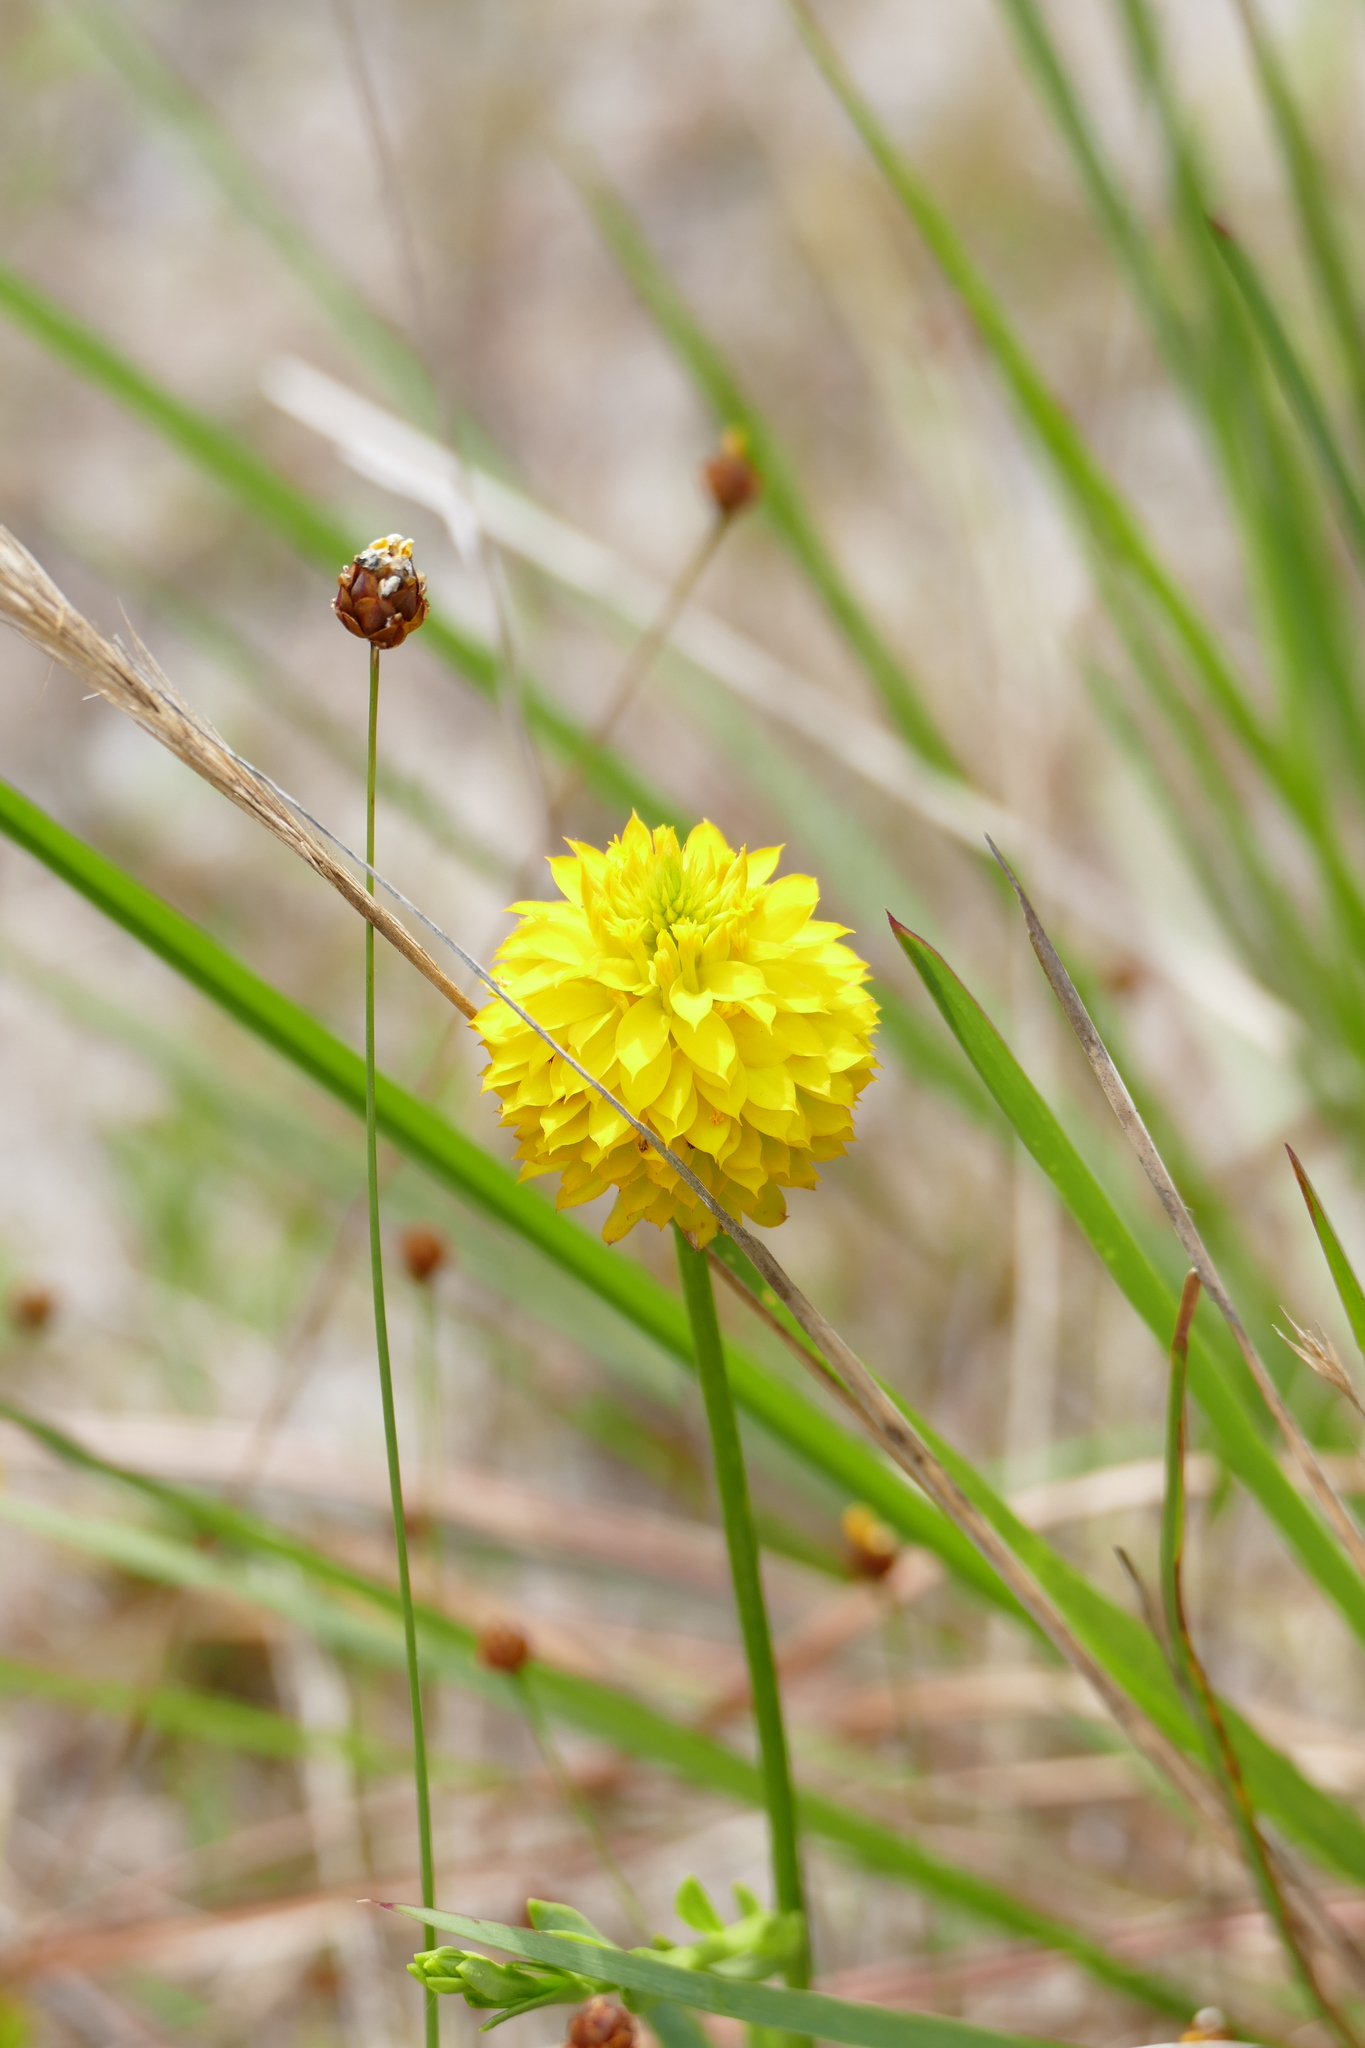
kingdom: Plantae
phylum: Tracheophyta
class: Magnoliopsida
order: Fabales
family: Polygalaceae
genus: Polygala
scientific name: Polygala rugelii
